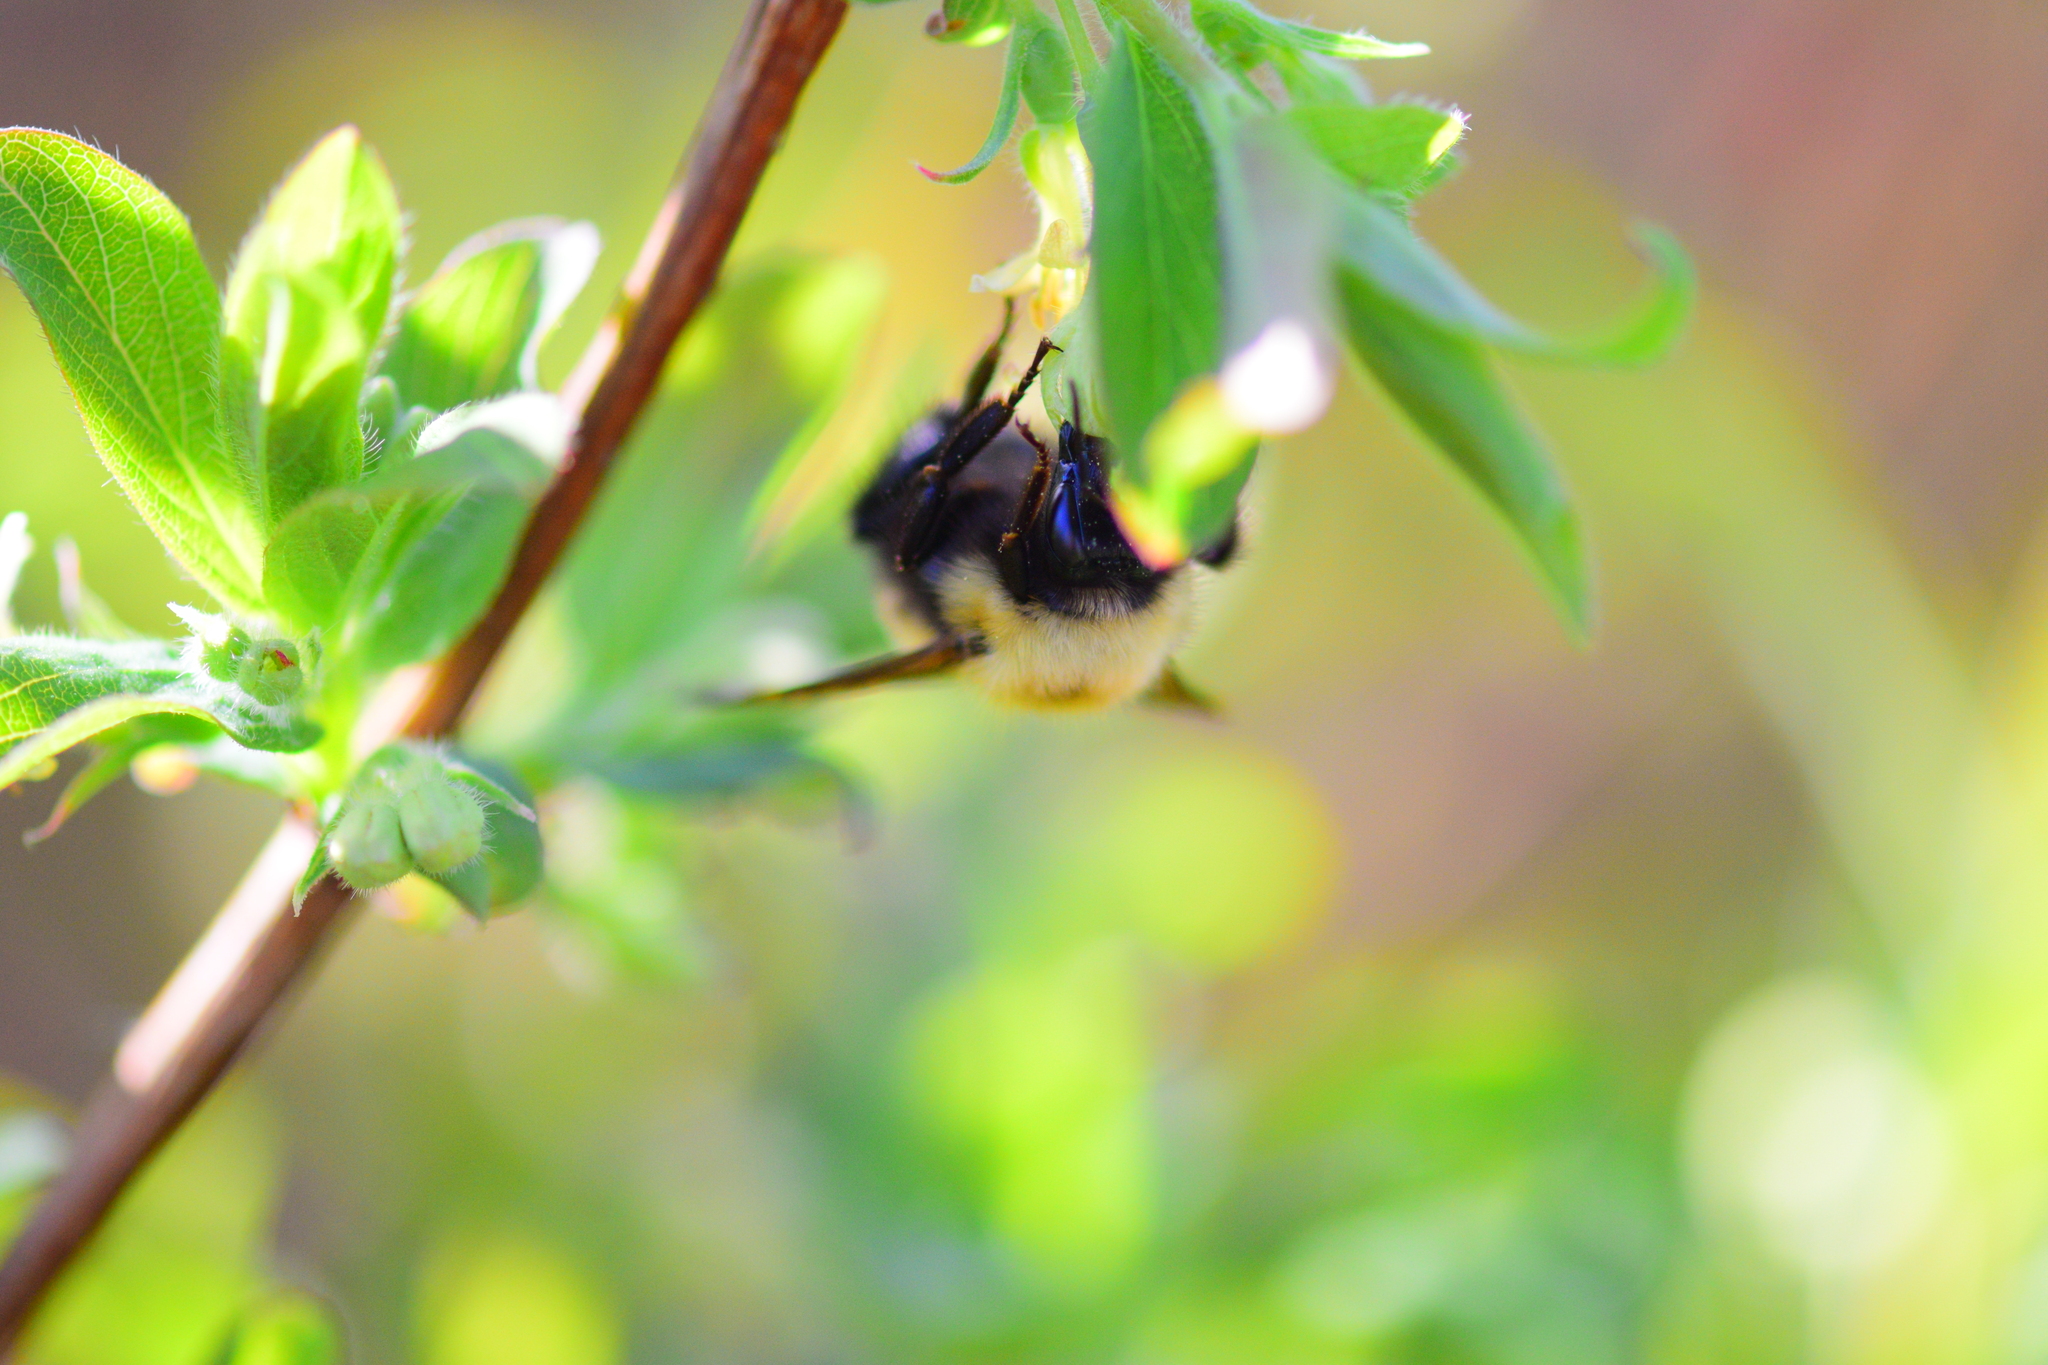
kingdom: Animalia
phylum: Arthropoda
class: Insecta
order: Hymenoptera
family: Apidae
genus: Bombus
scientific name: Bombus perplexus
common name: Confusing bumble bee
